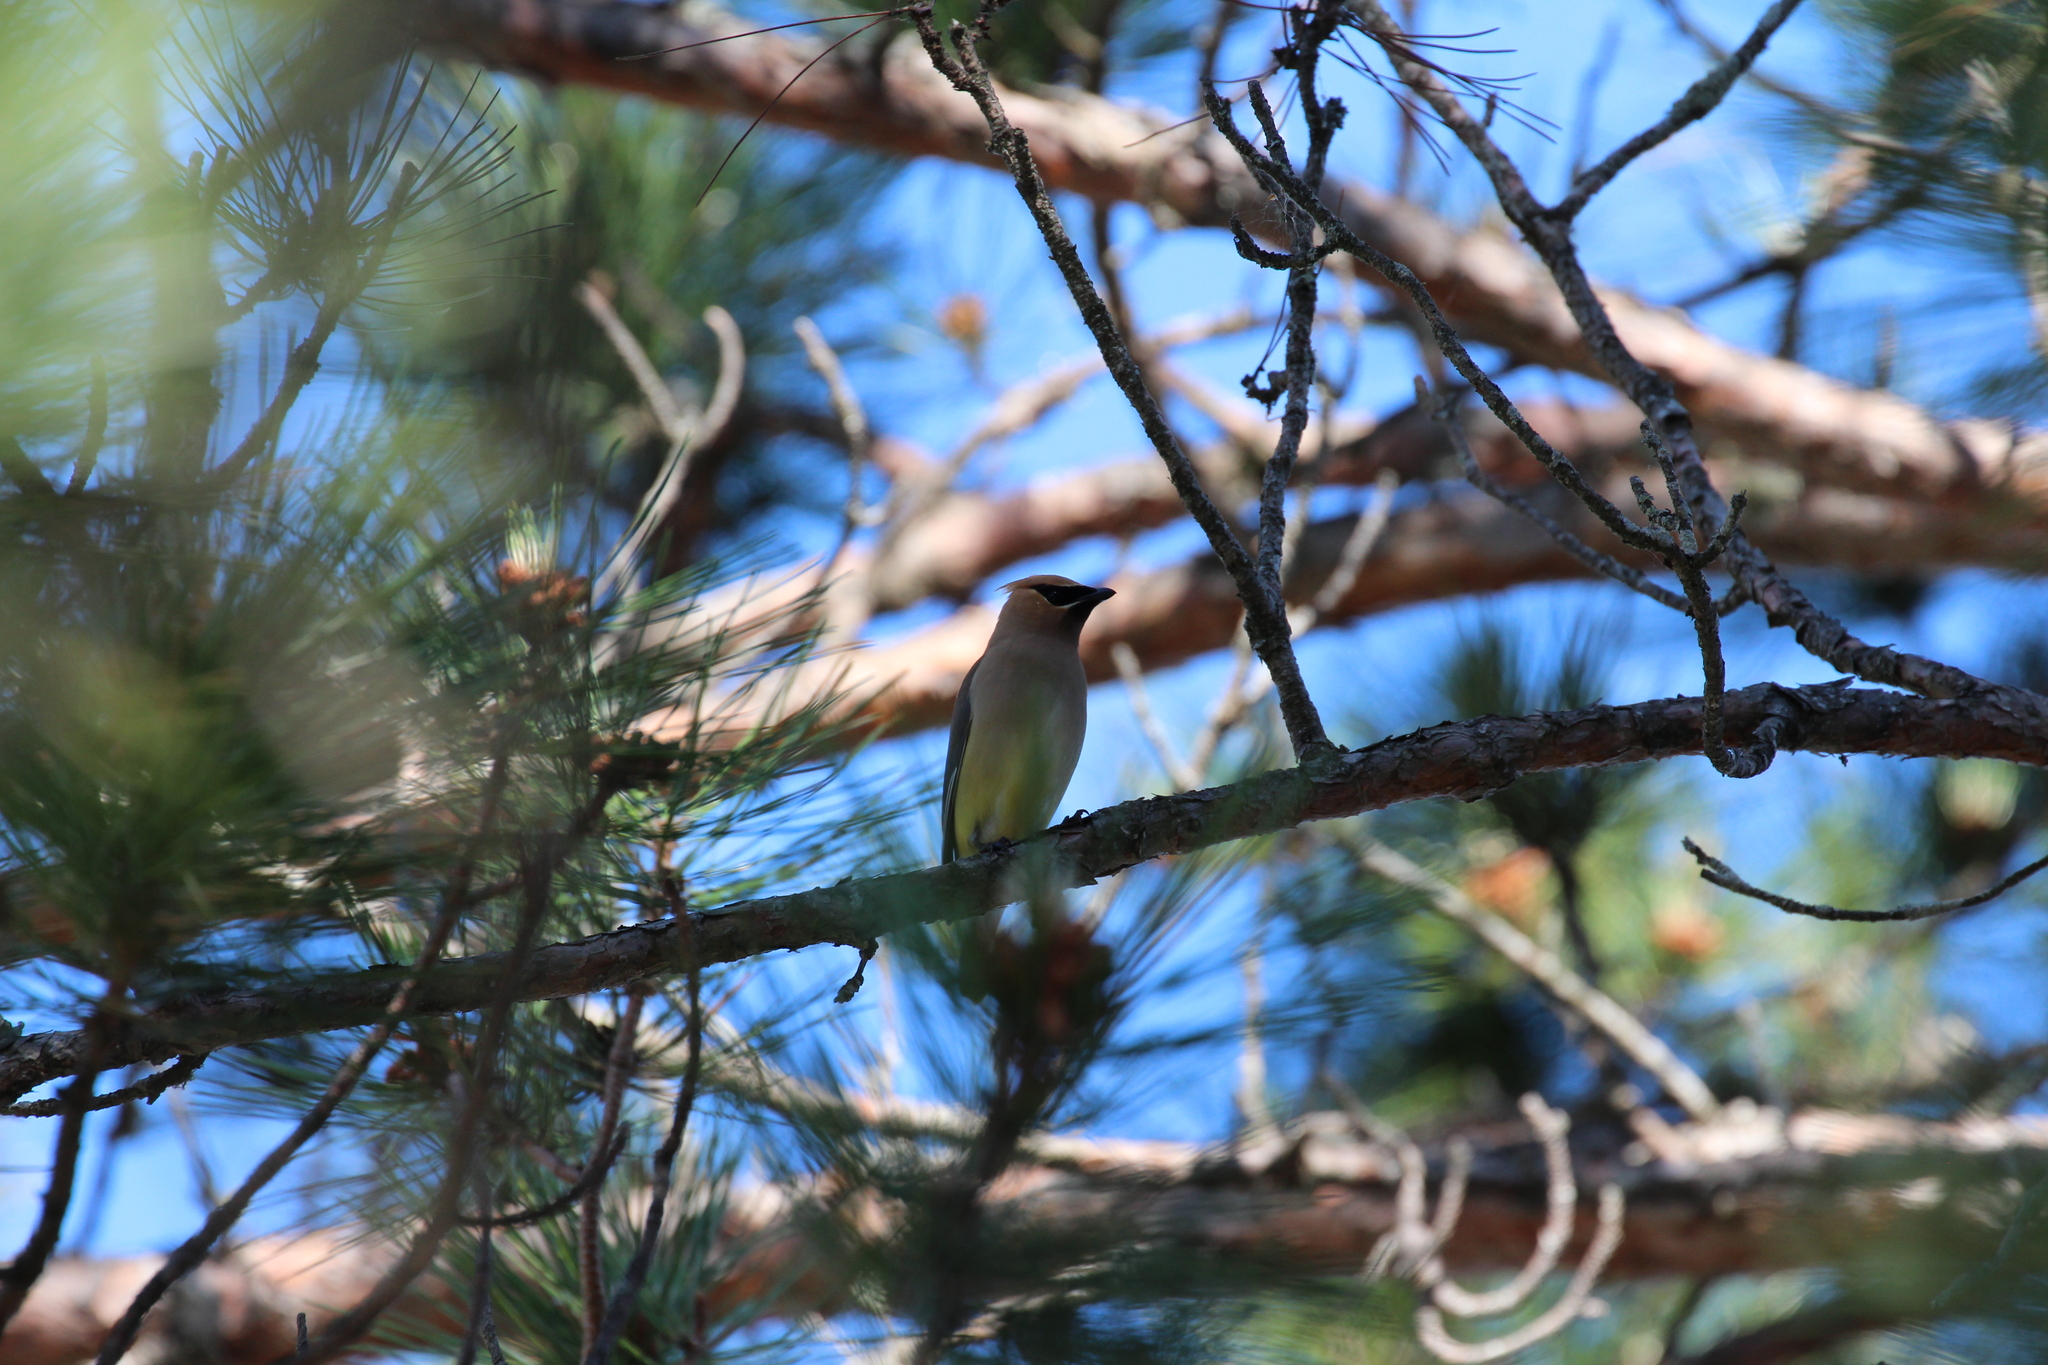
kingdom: Animalia
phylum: Chordata
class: Aves
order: Passeriformes
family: Bombycillidae
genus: Bombycilla
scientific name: Bombycilla cedrorum
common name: Cedar waxwing
